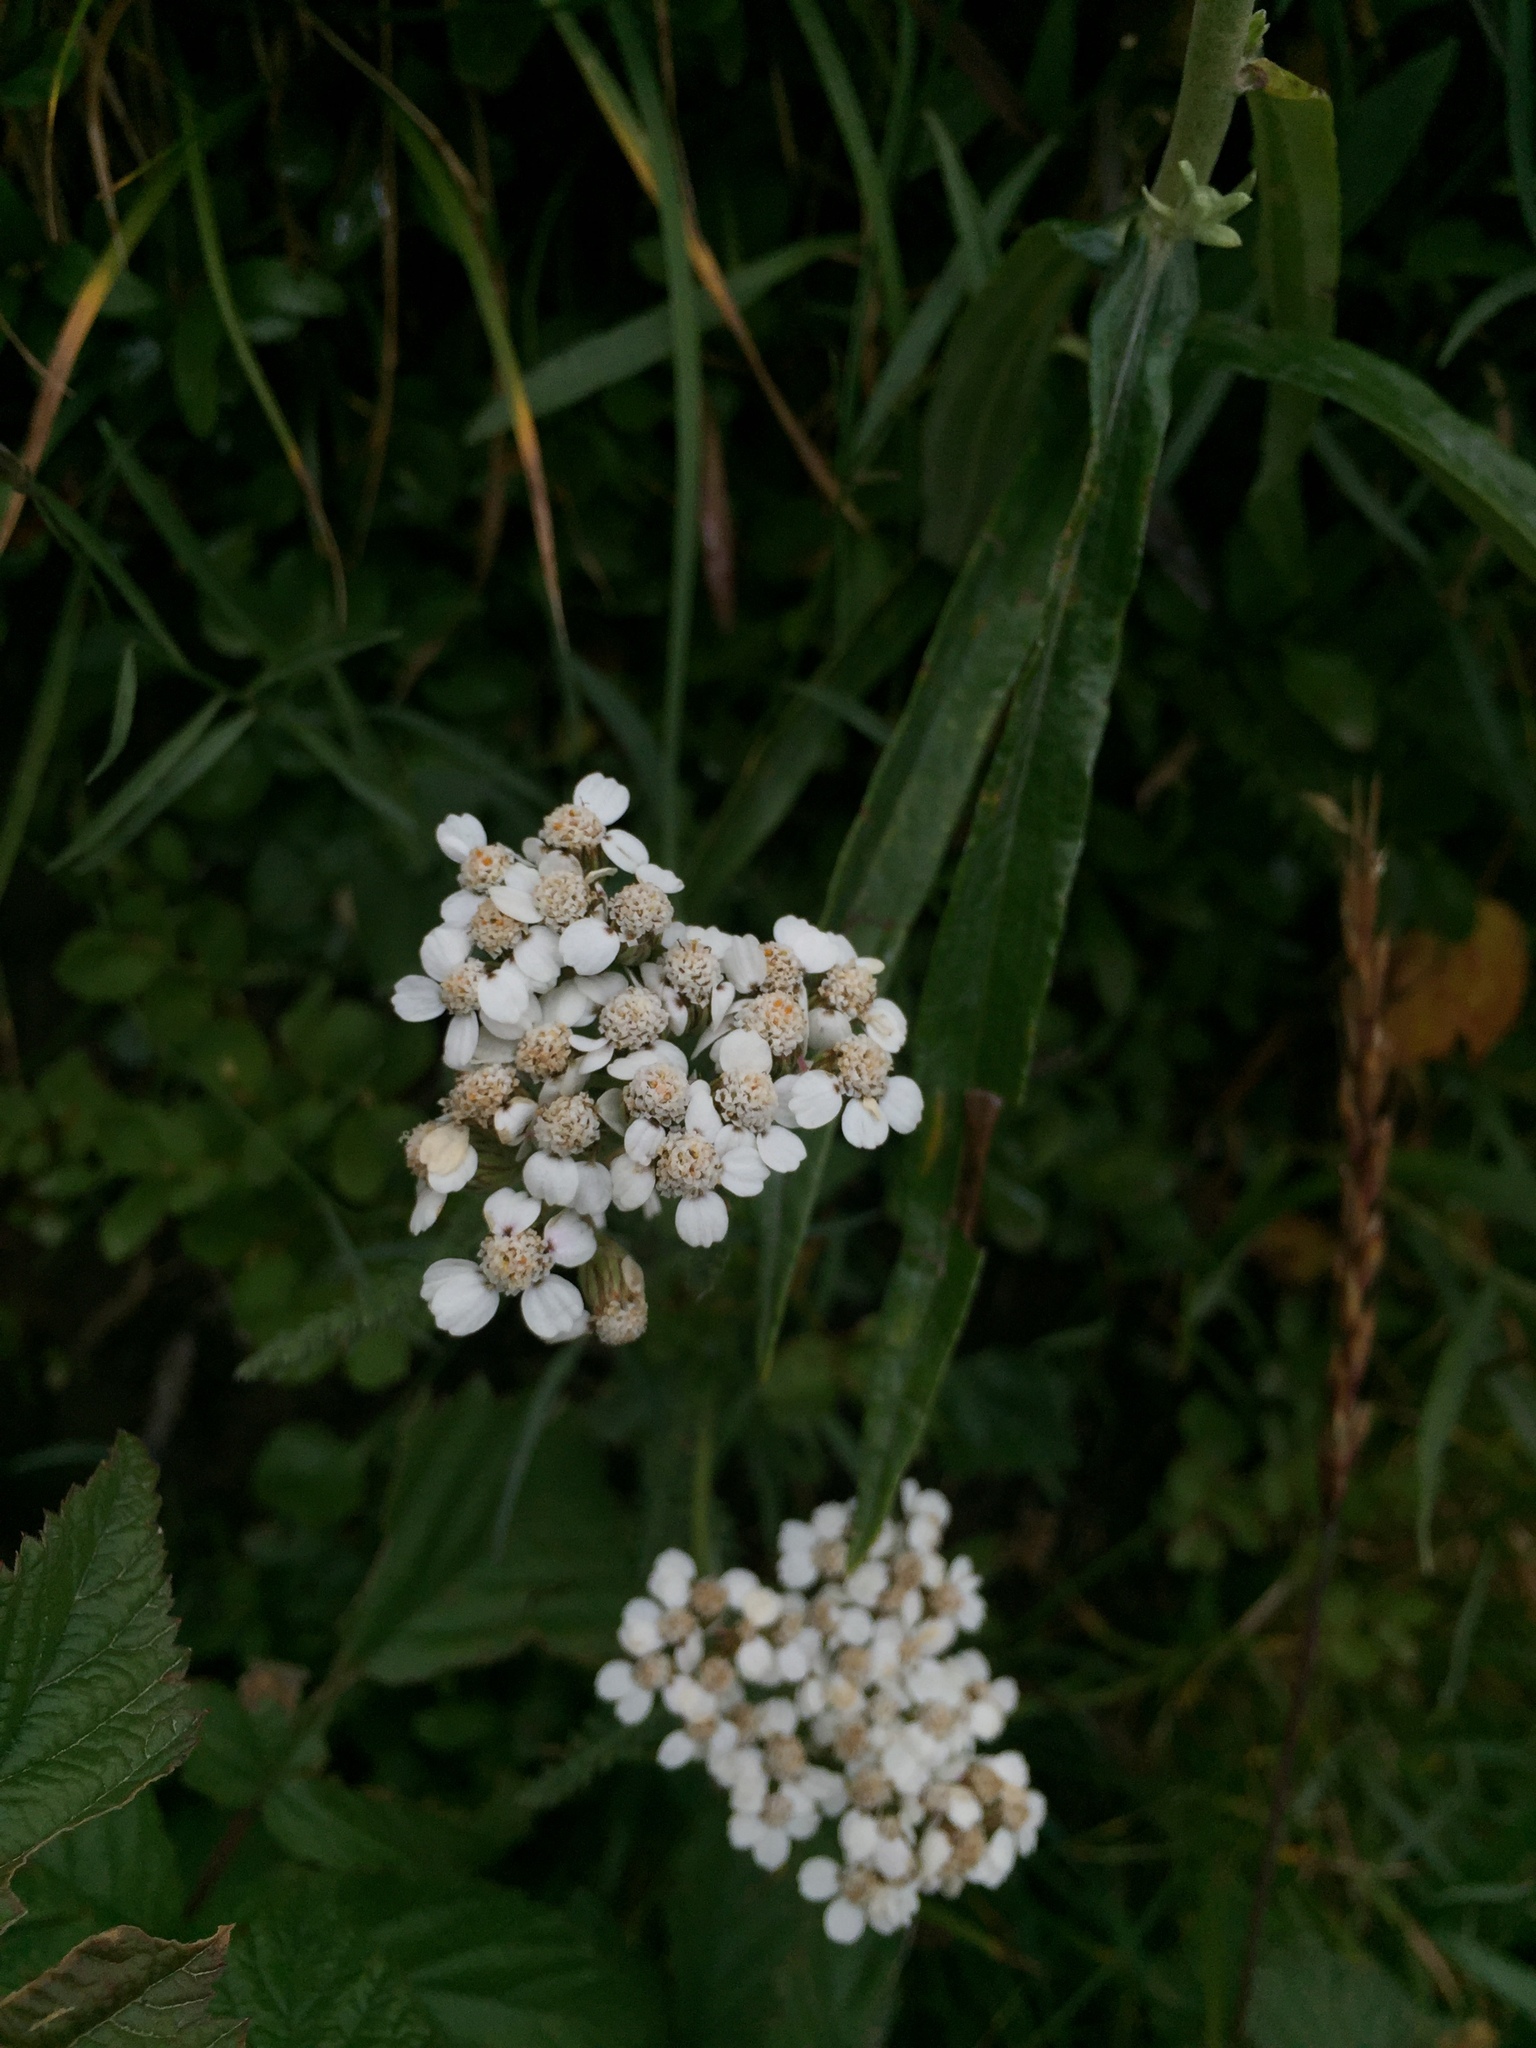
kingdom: Plantae
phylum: Tracheophyta
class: Magnoliopsida
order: Asterales
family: Asteraceae
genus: Achillea
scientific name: Achillea millefolium
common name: Yarrow
